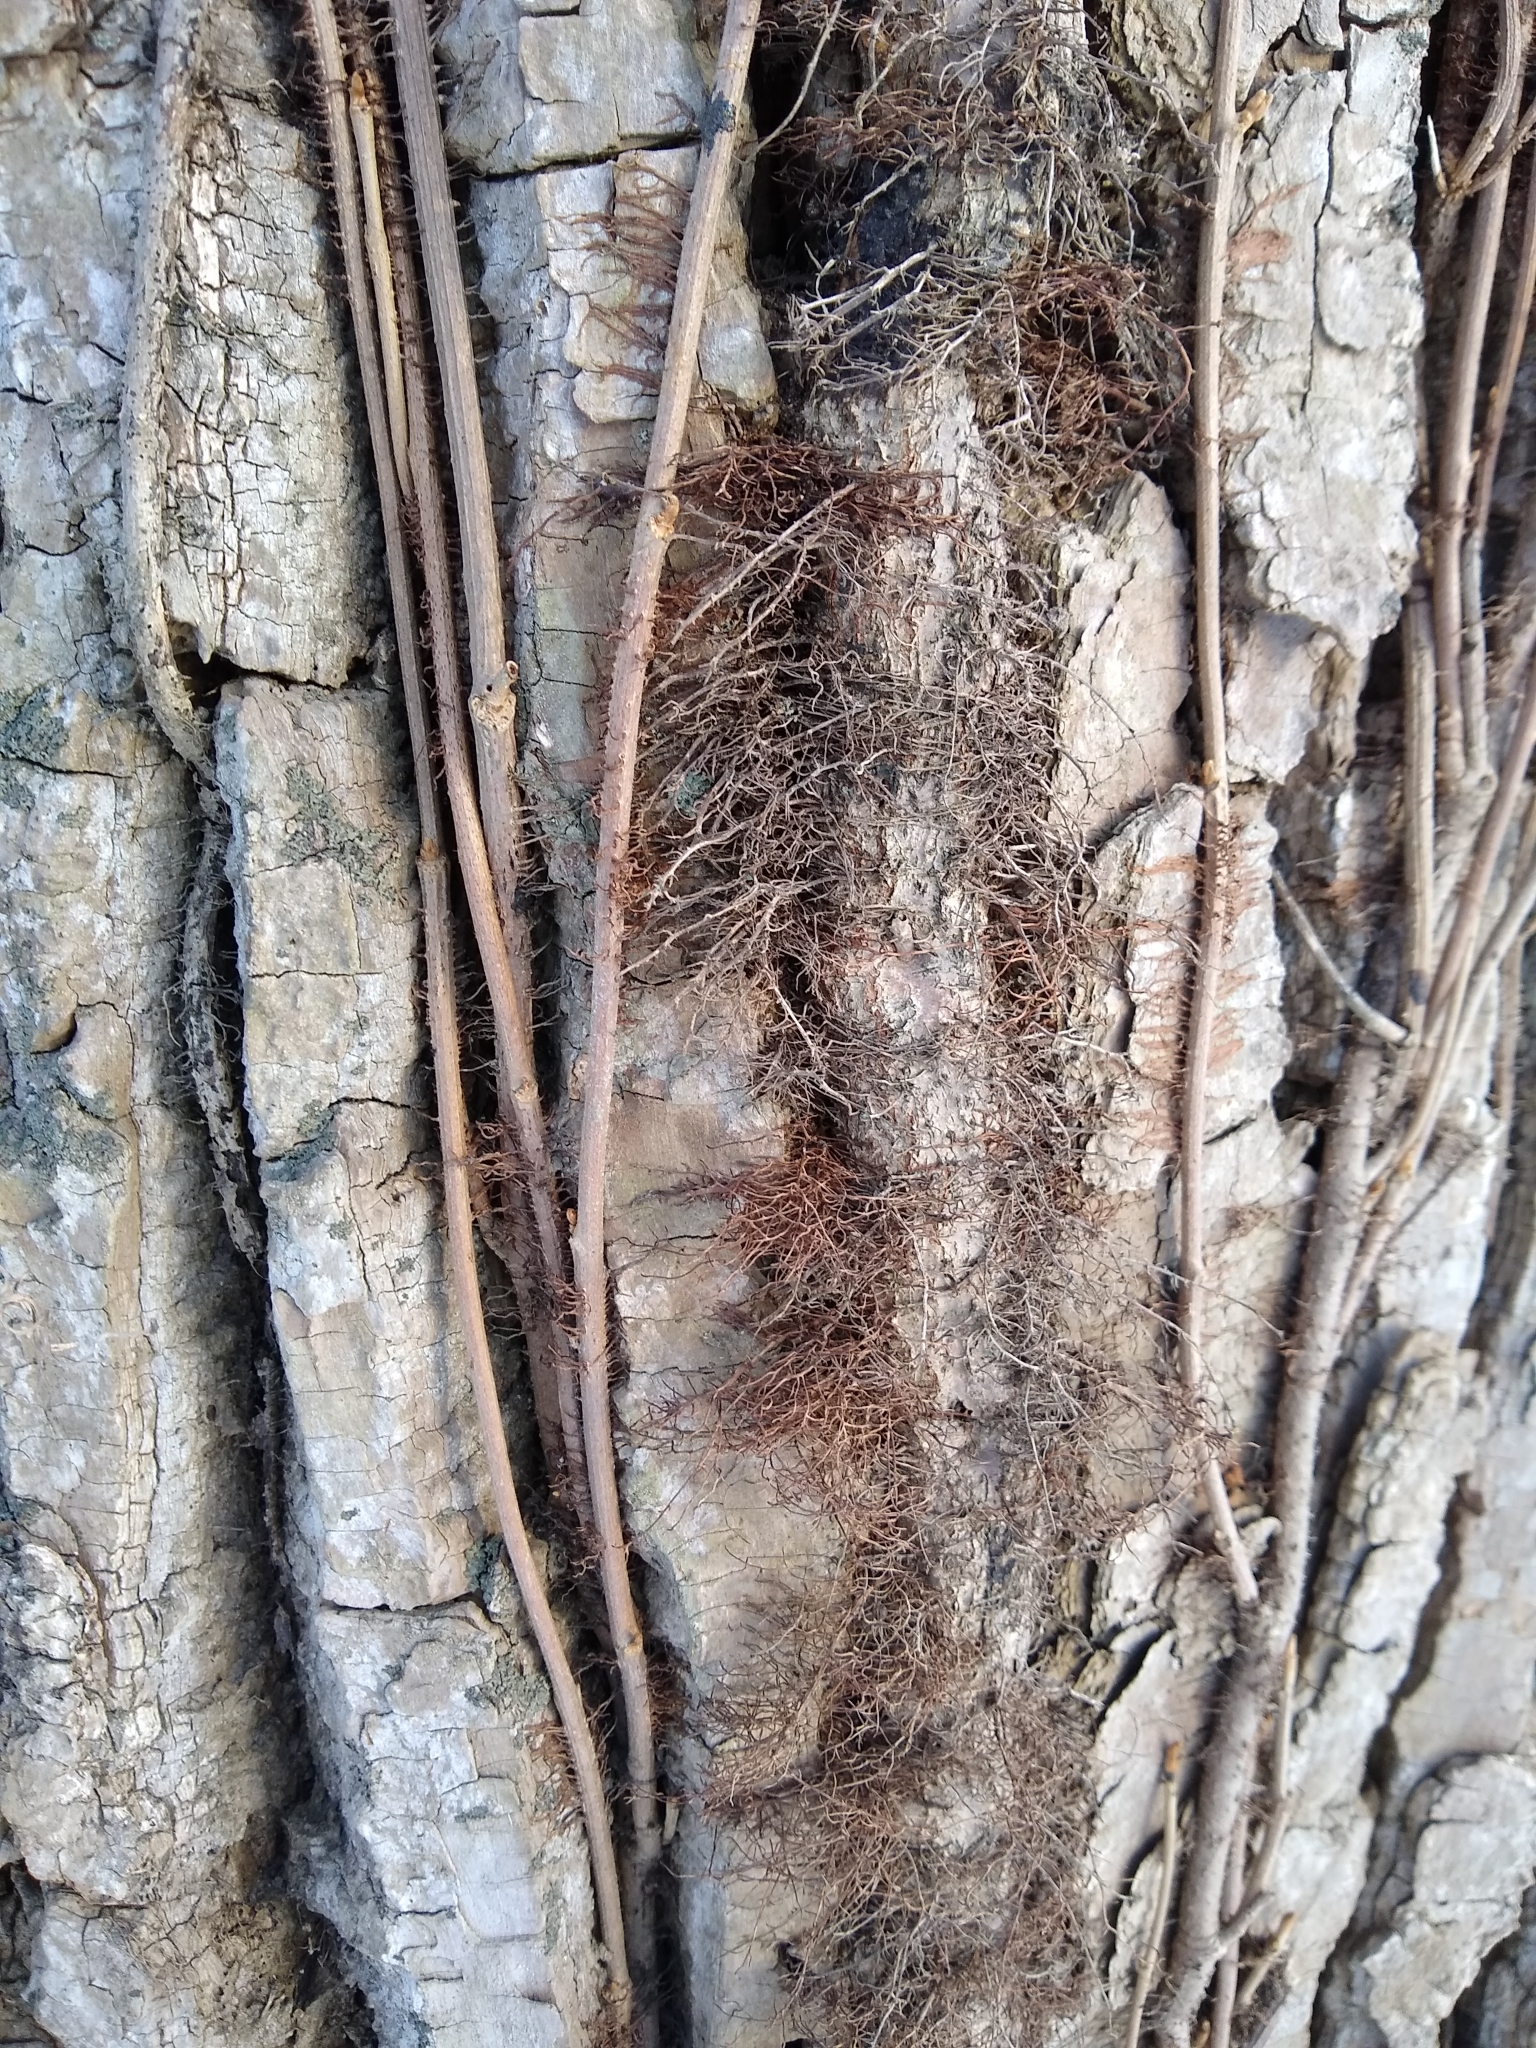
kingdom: Plantae
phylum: Tracheophyta
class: Magnoliopsida
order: Sapindales
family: Anacardiaceae
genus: Toxicodendron
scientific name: Toxicodendron radicans
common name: Poison ivy
